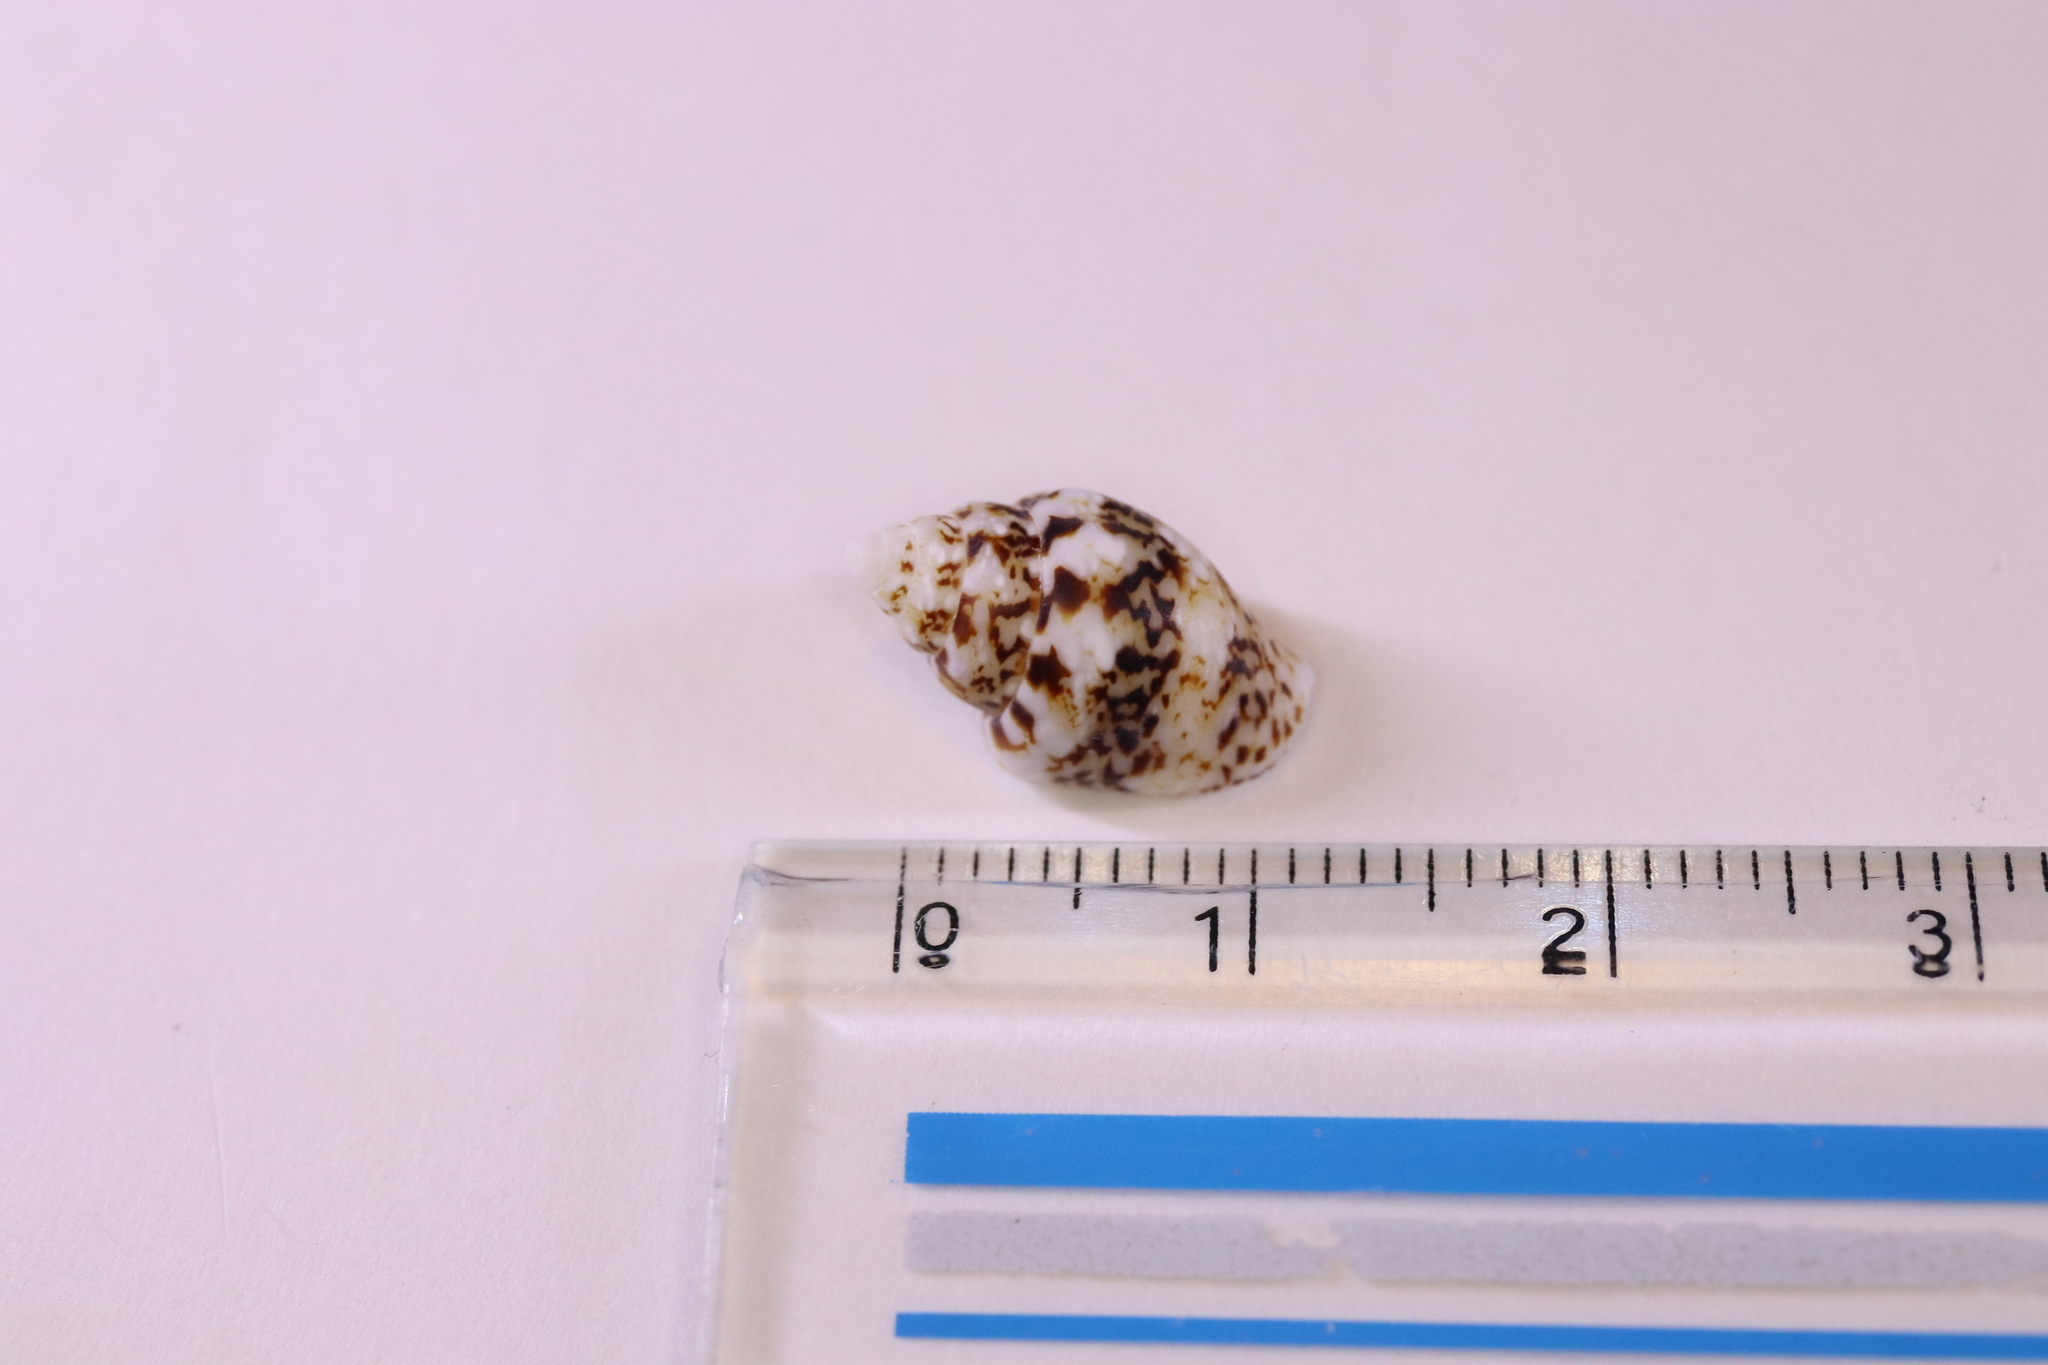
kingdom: Animalia
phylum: Mollusca
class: Gastropoda
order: Neogastropoda
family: Columbellidae
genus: Euplica
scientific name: Euplica scripta
